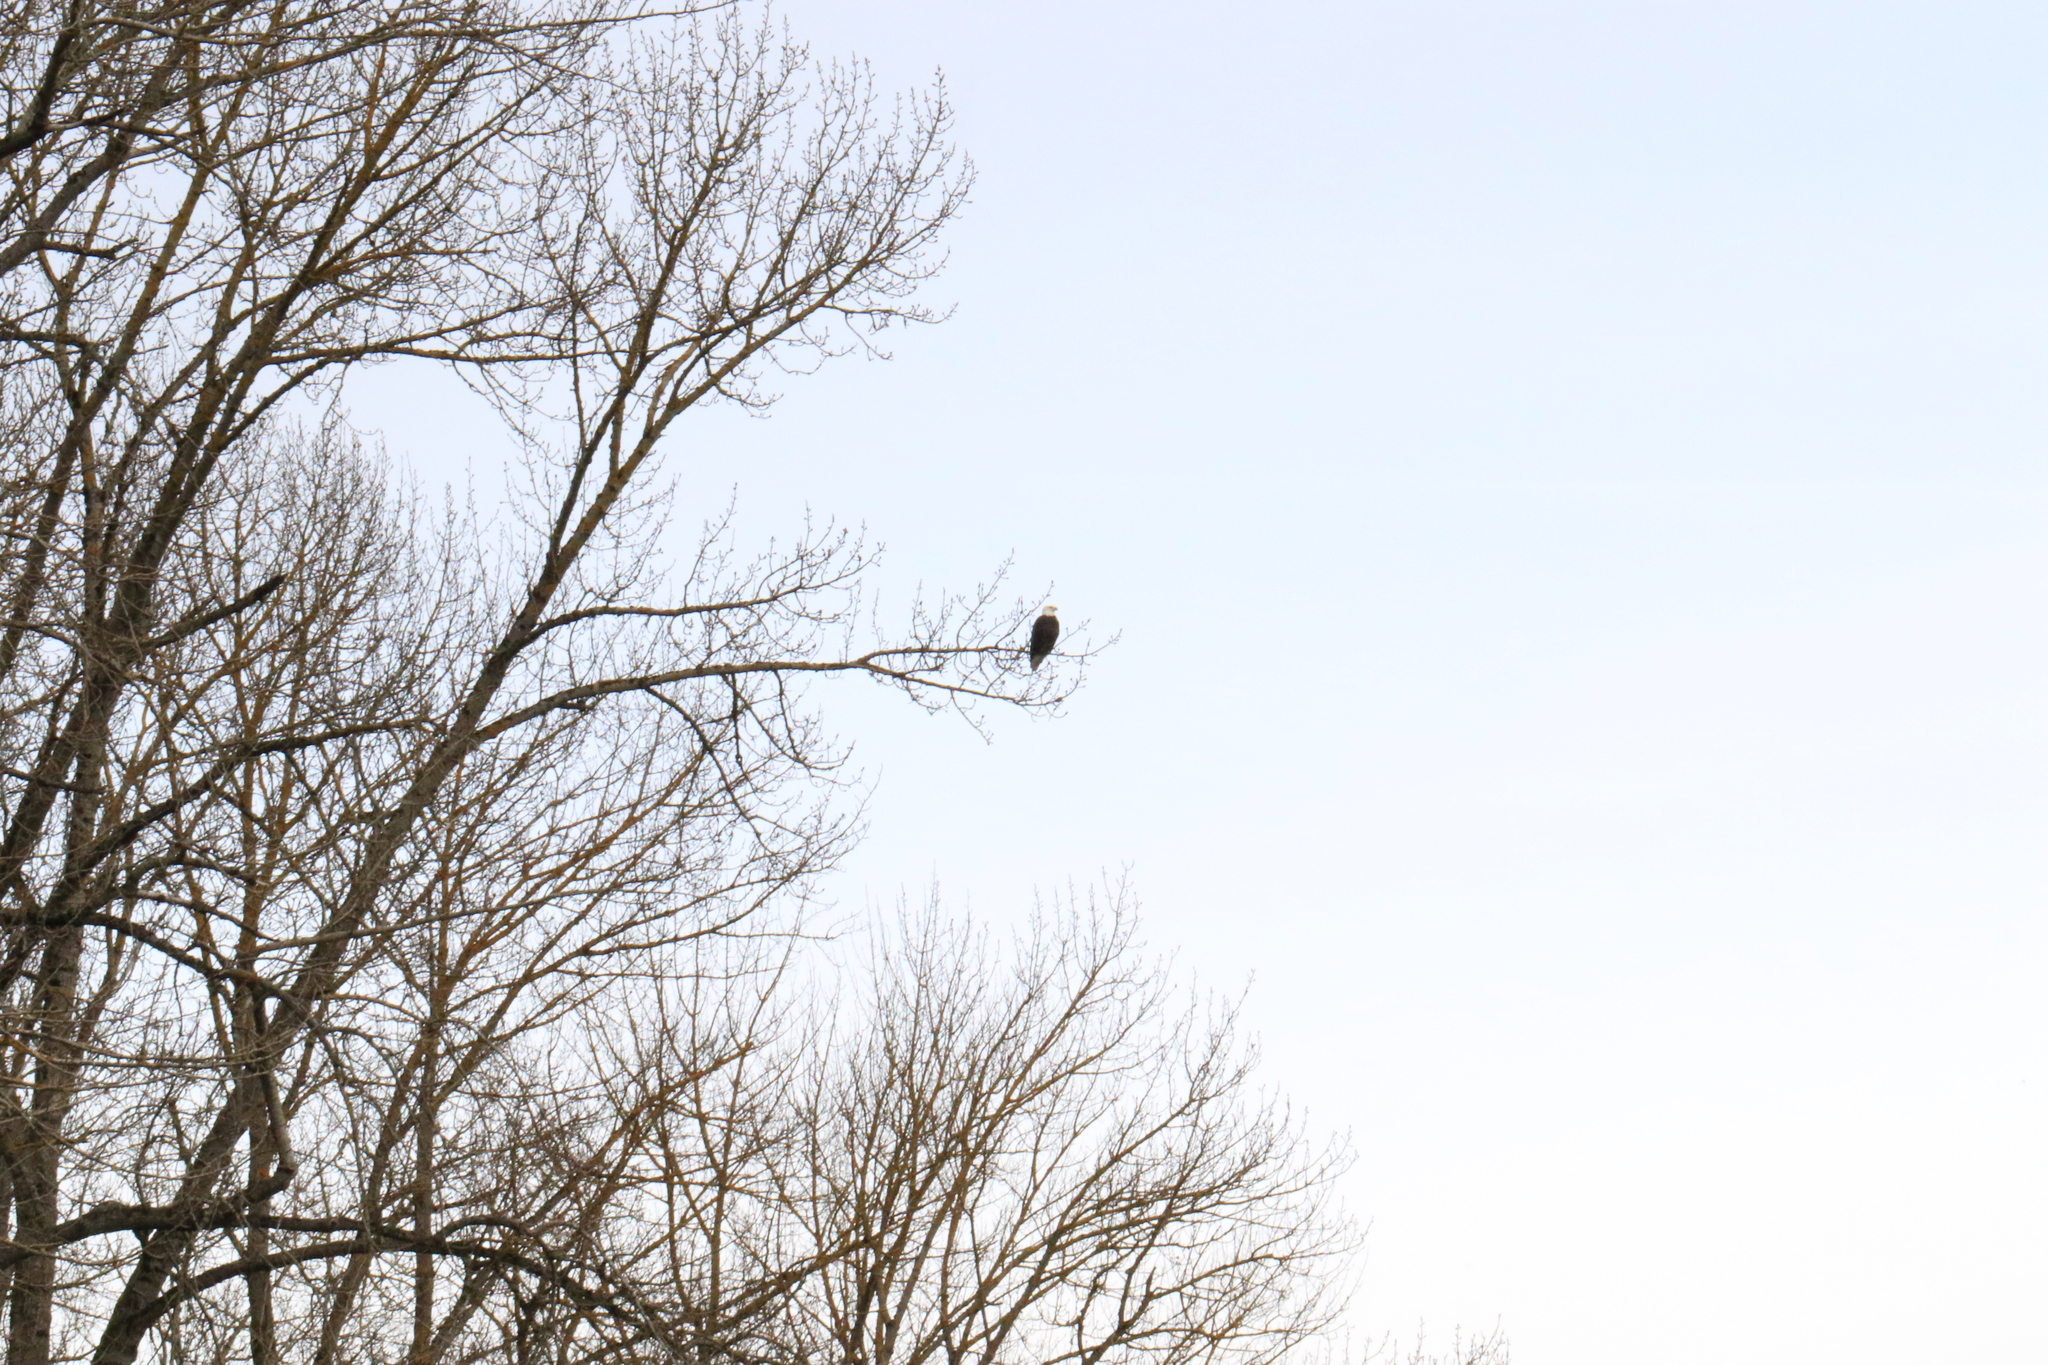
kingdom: Animalia
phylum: Chordata
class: Aves
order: Accipitriformes
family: Accipitridae
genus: Haliaeetus
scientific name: Haliaeetus leucocephalus
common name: Bald eagle
